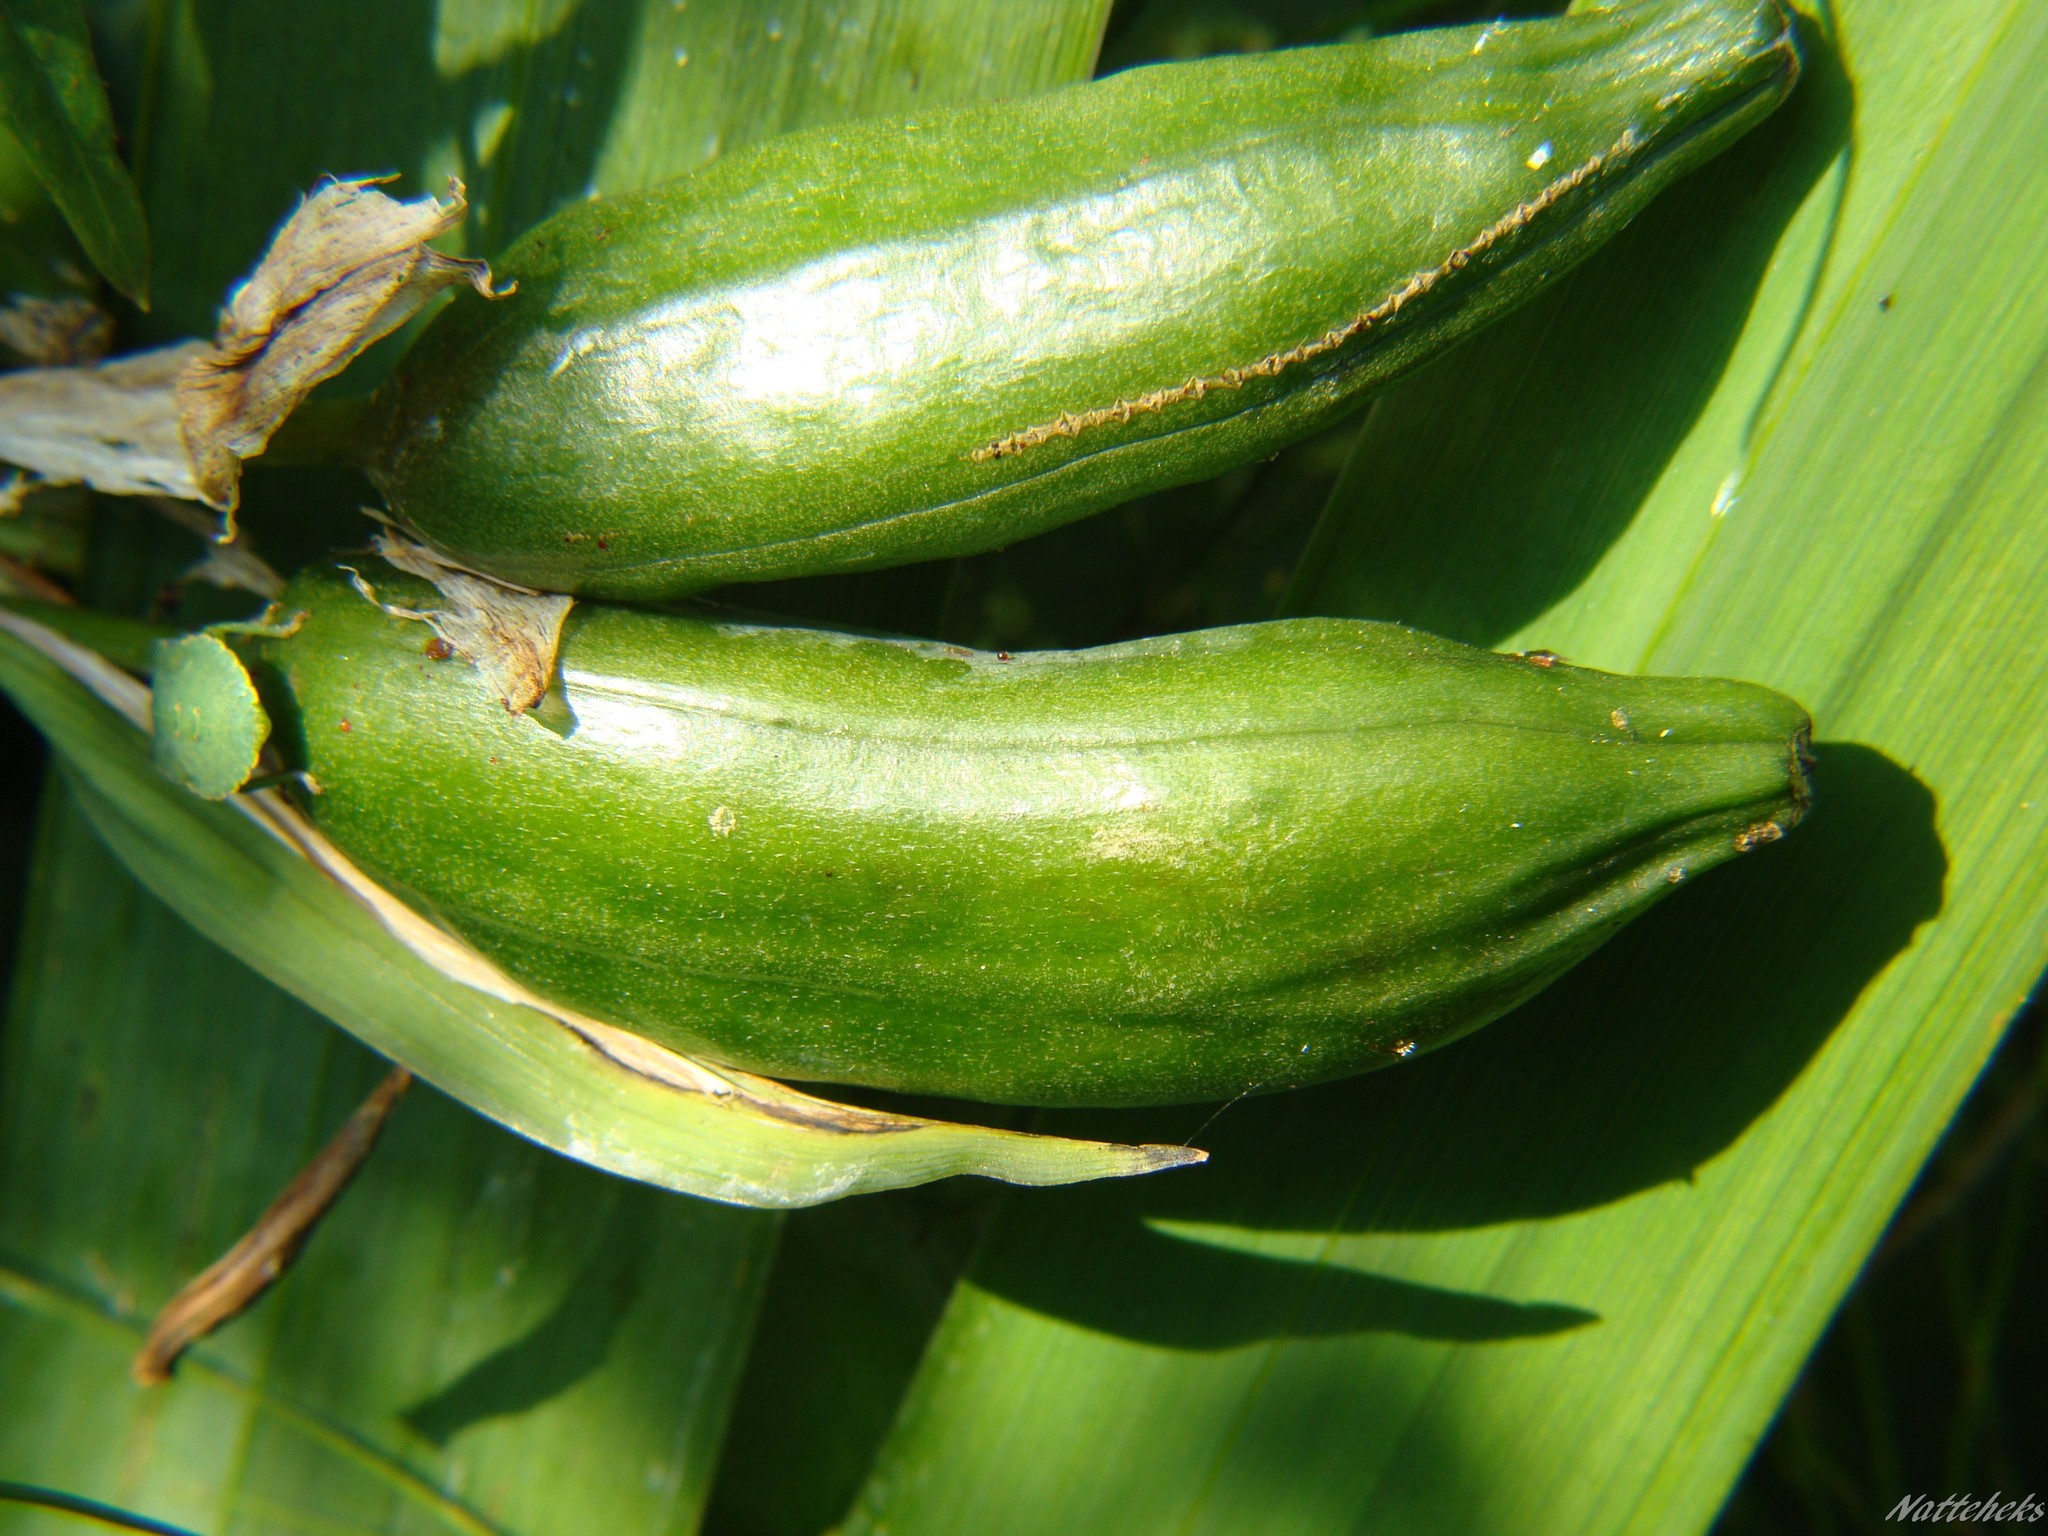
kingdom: Plantae
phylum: Tracheophyta
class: Liliopsida
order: Asparagales
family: Iridaceae
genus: Iris
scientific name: Iris pseudacorus
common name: Yellow flag
